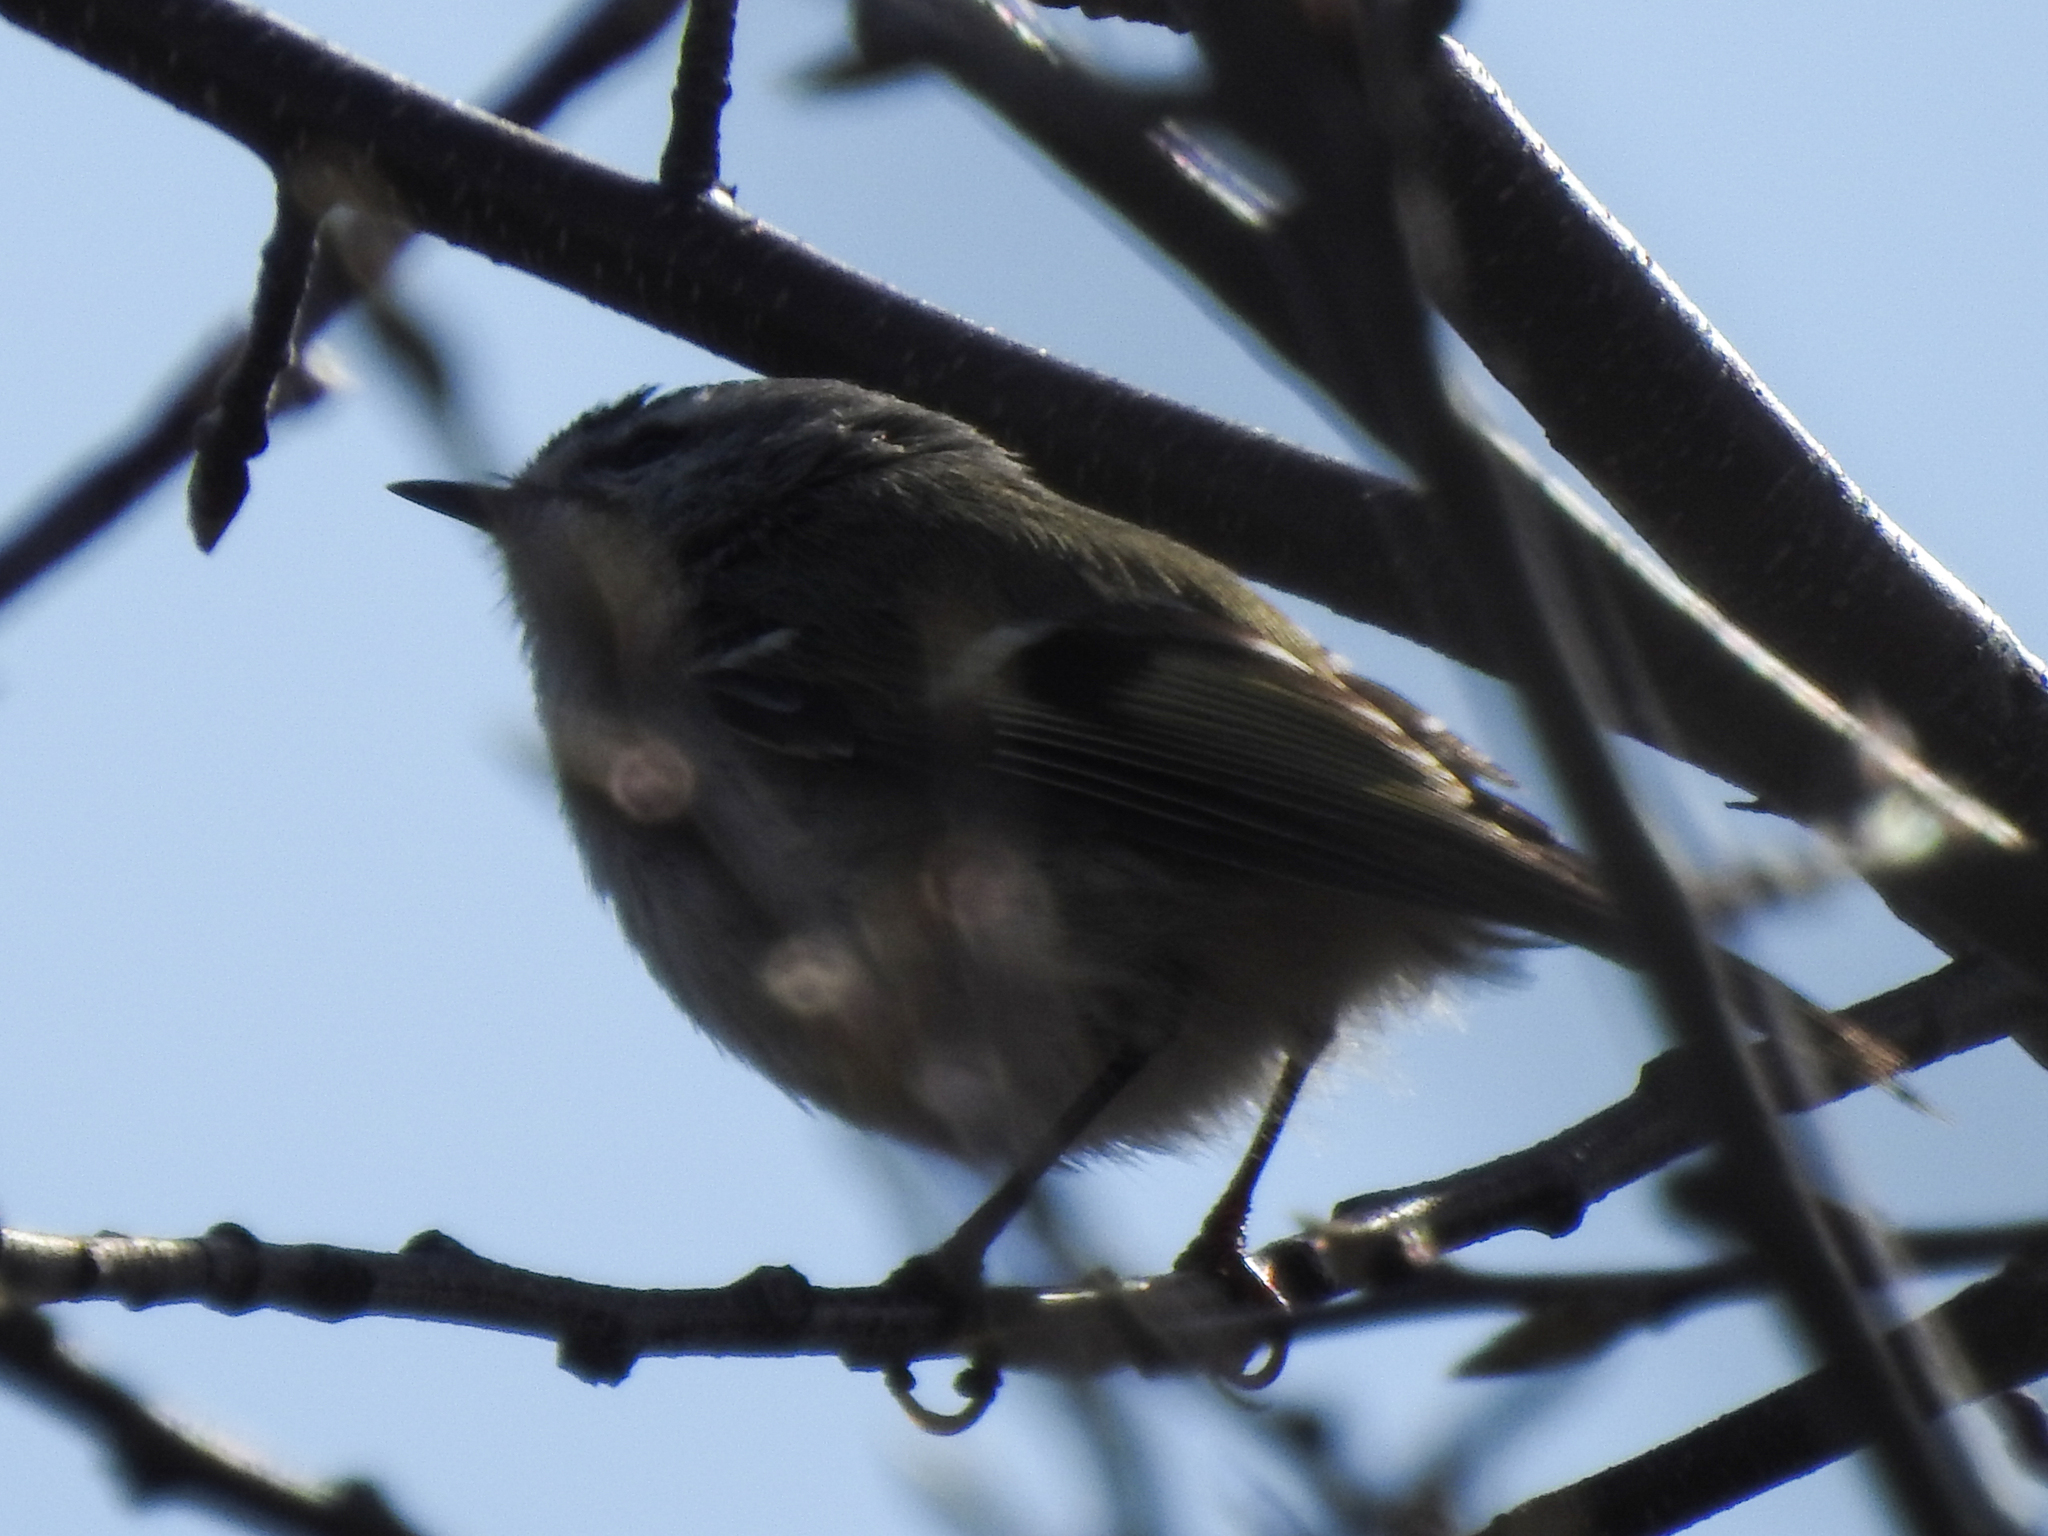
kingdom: Animalia
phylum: Chordata
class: Aves
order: Passeriformes
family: Regulidae
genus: Regulus
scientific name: Regulus satrapa
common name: Golden-crowned kinglet
